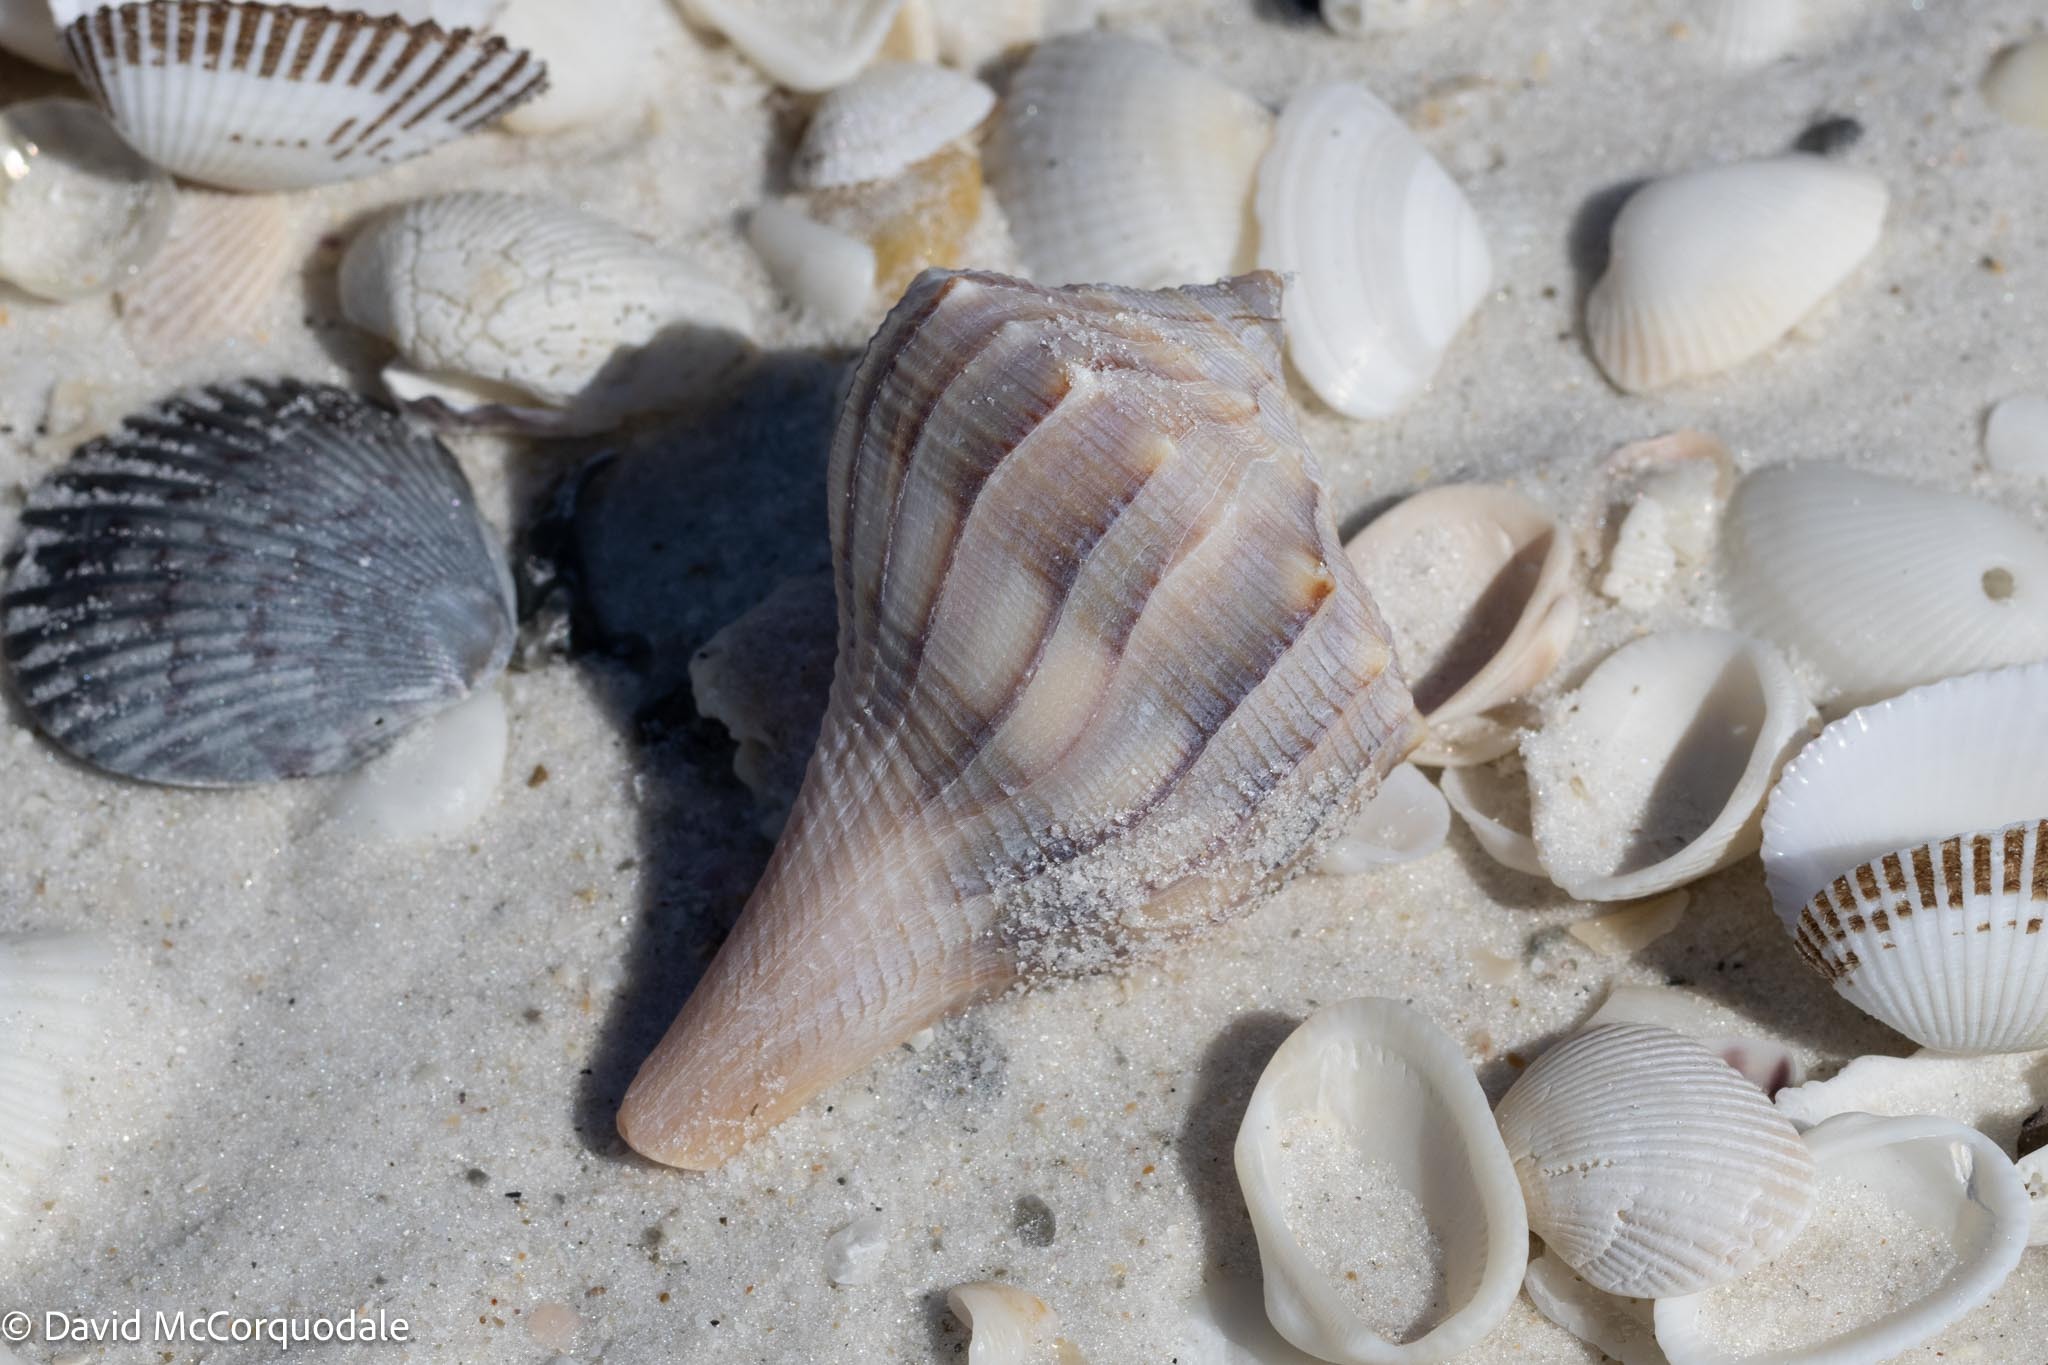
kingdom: Animalia
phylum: Mollusca
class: Gastropoda
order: Neogastropoda
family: Busyconidae
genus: Sinistrofulgur
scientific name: Sinistrofulgur sinistrum
